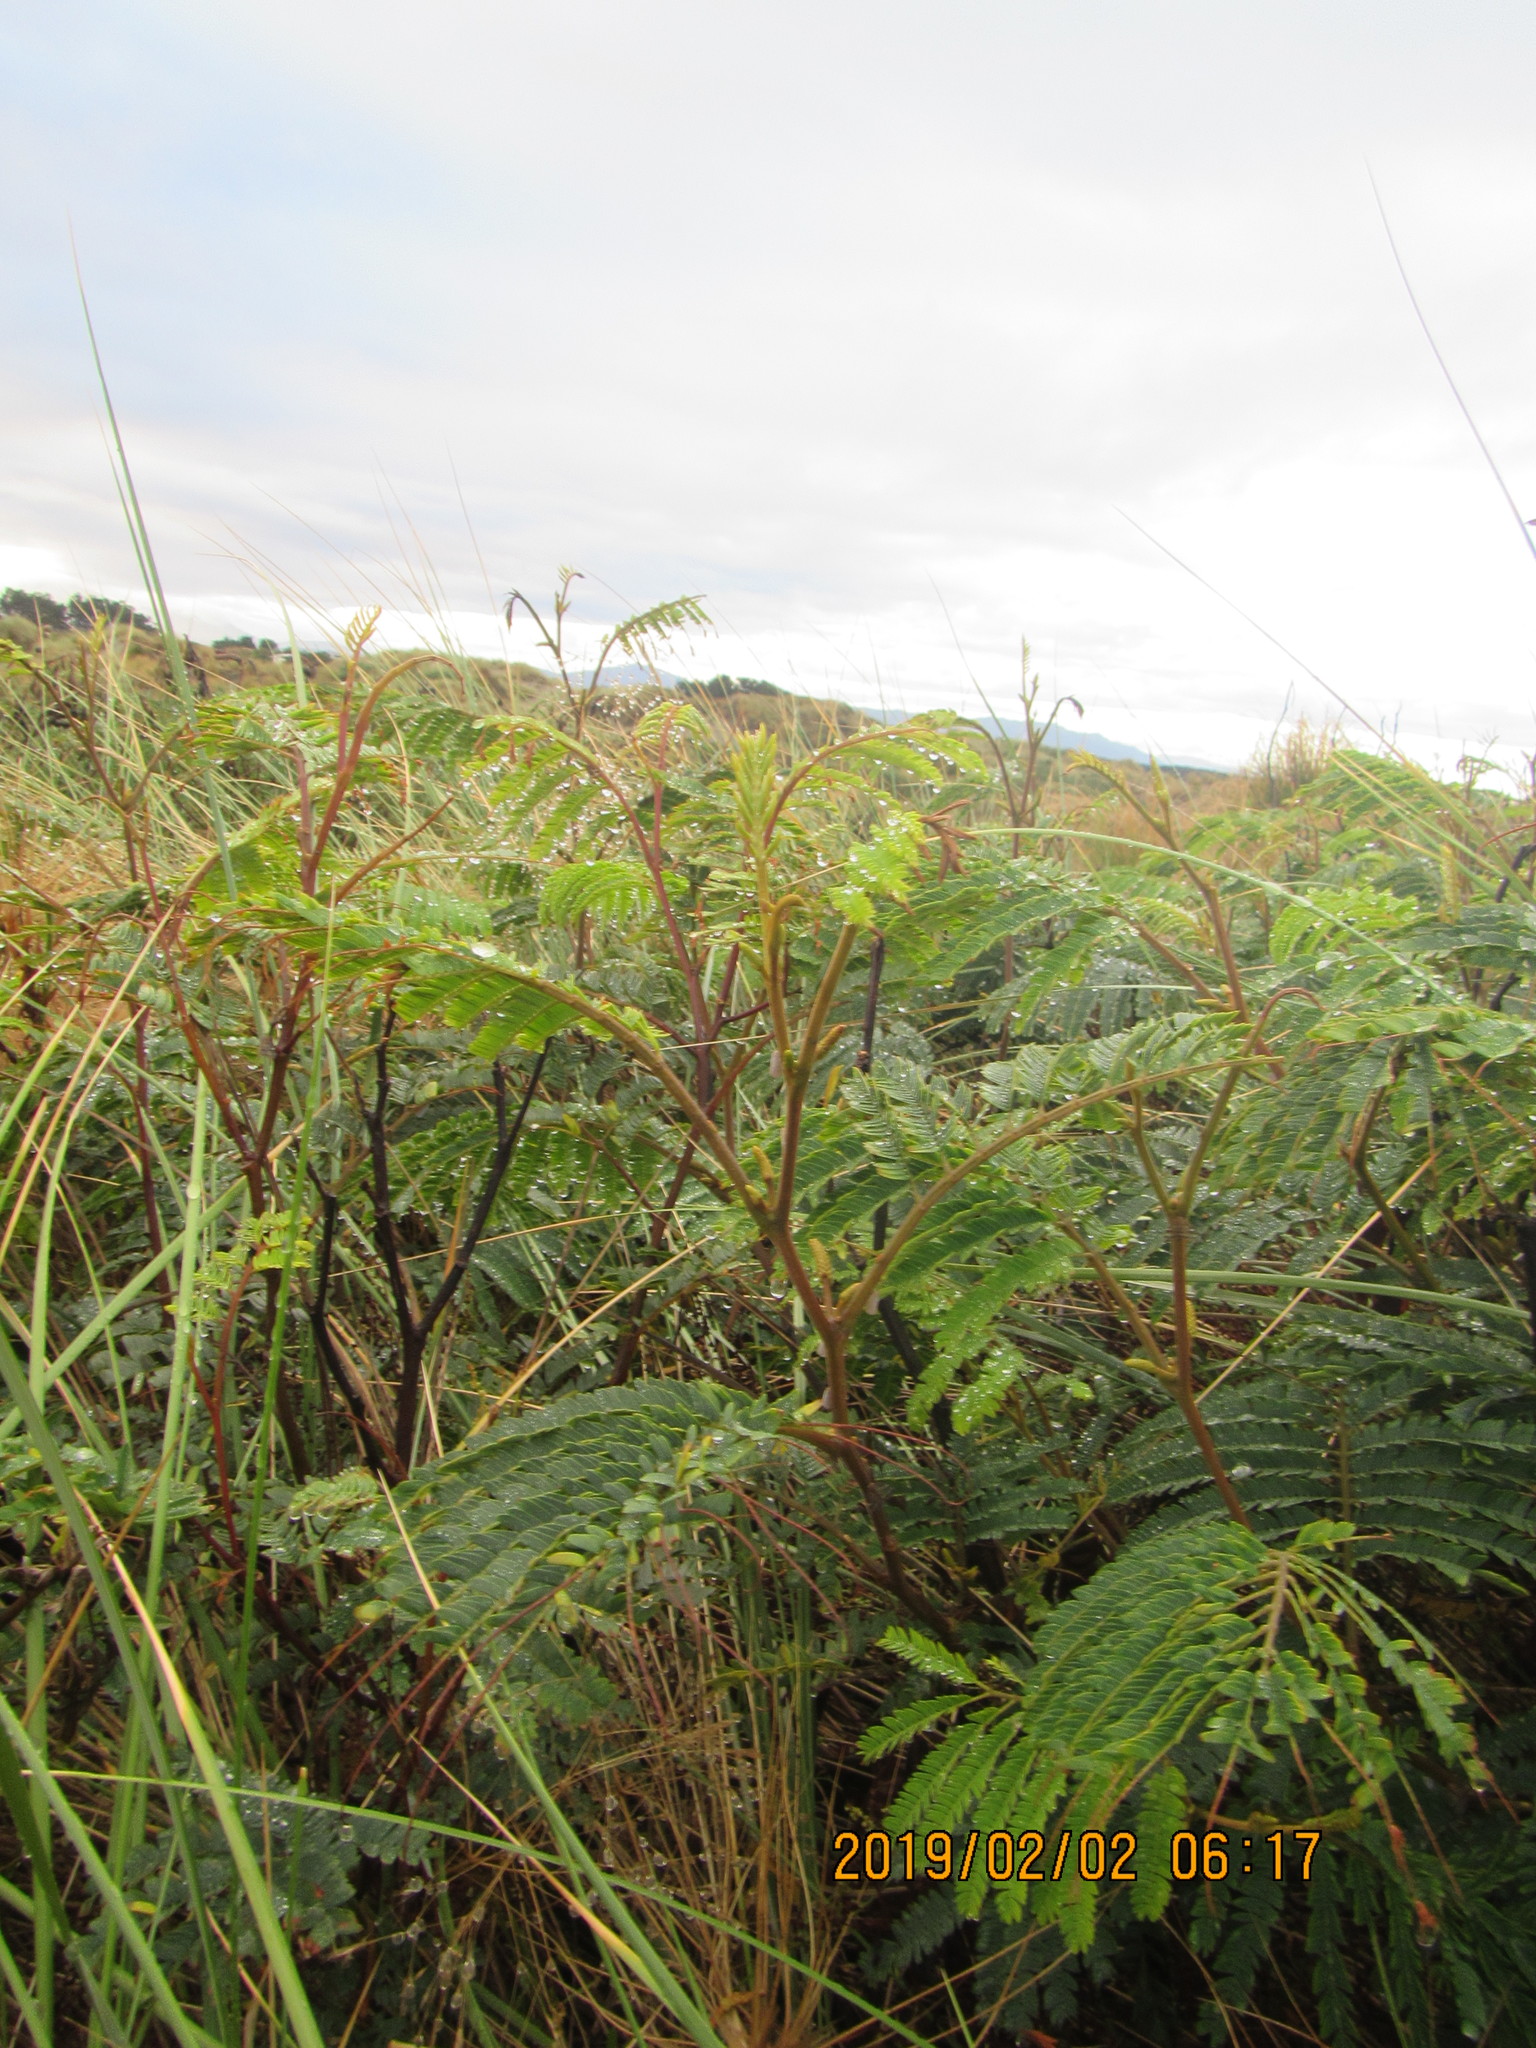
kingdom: Plantae
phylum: Tracheophyta
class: Magnoliopsida
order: Fabales
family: Fabaceae
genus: Paraserianthes
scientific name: Paraserianthes lophantha
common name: Plume albizia
